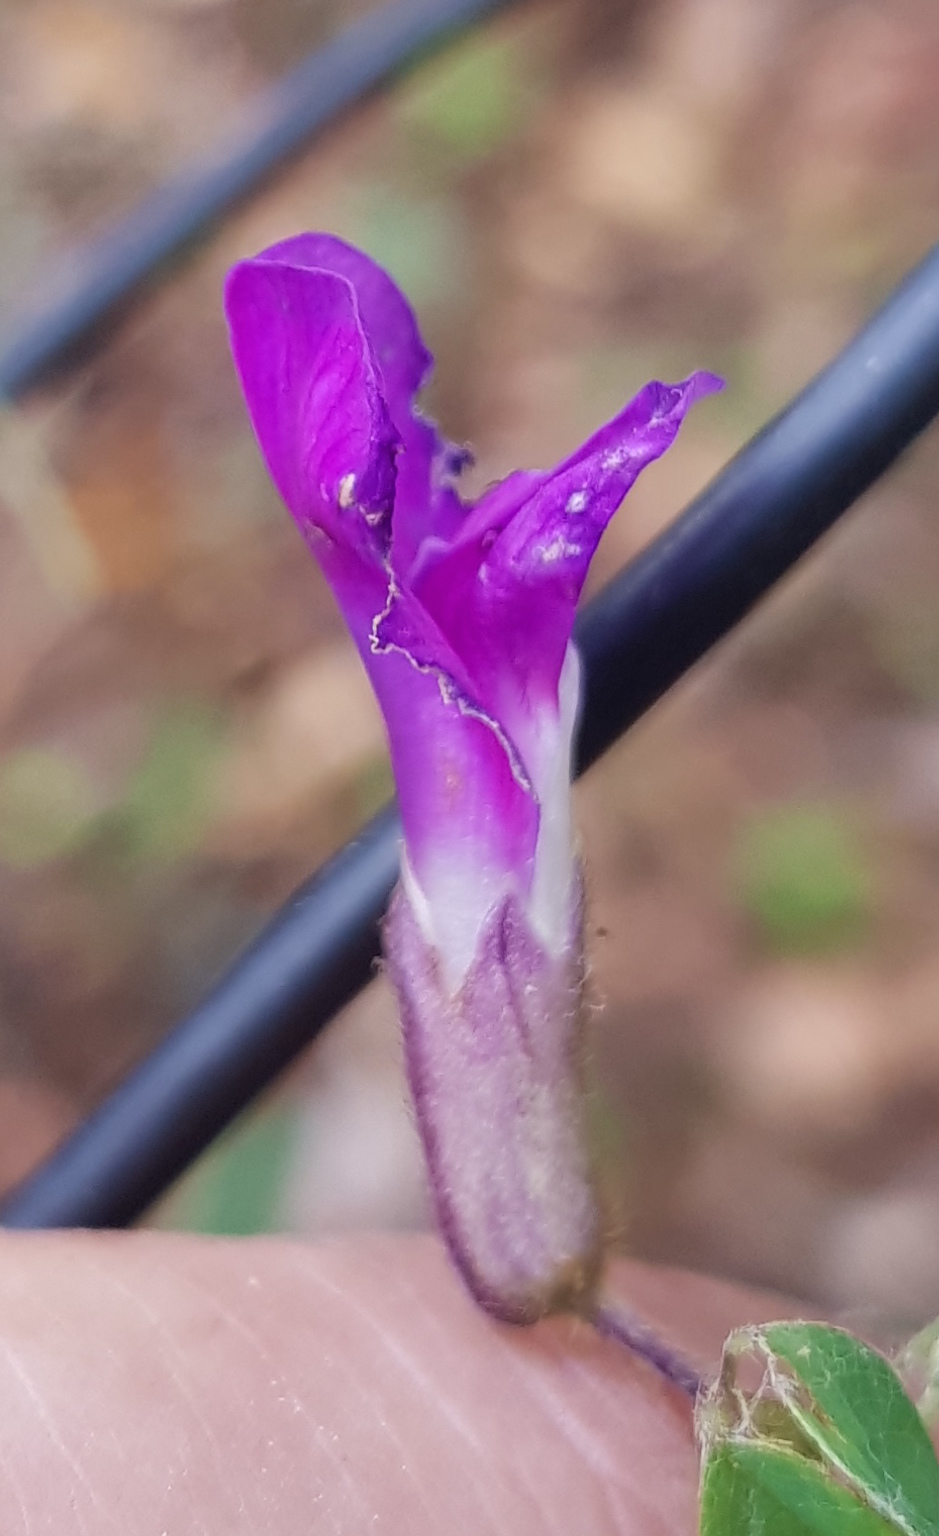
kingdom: Plantae
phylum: Tracheophyta
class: Magnoliopsida
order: Fabales
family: Fabaceae
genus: Cologania
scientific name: Cologania biloba
